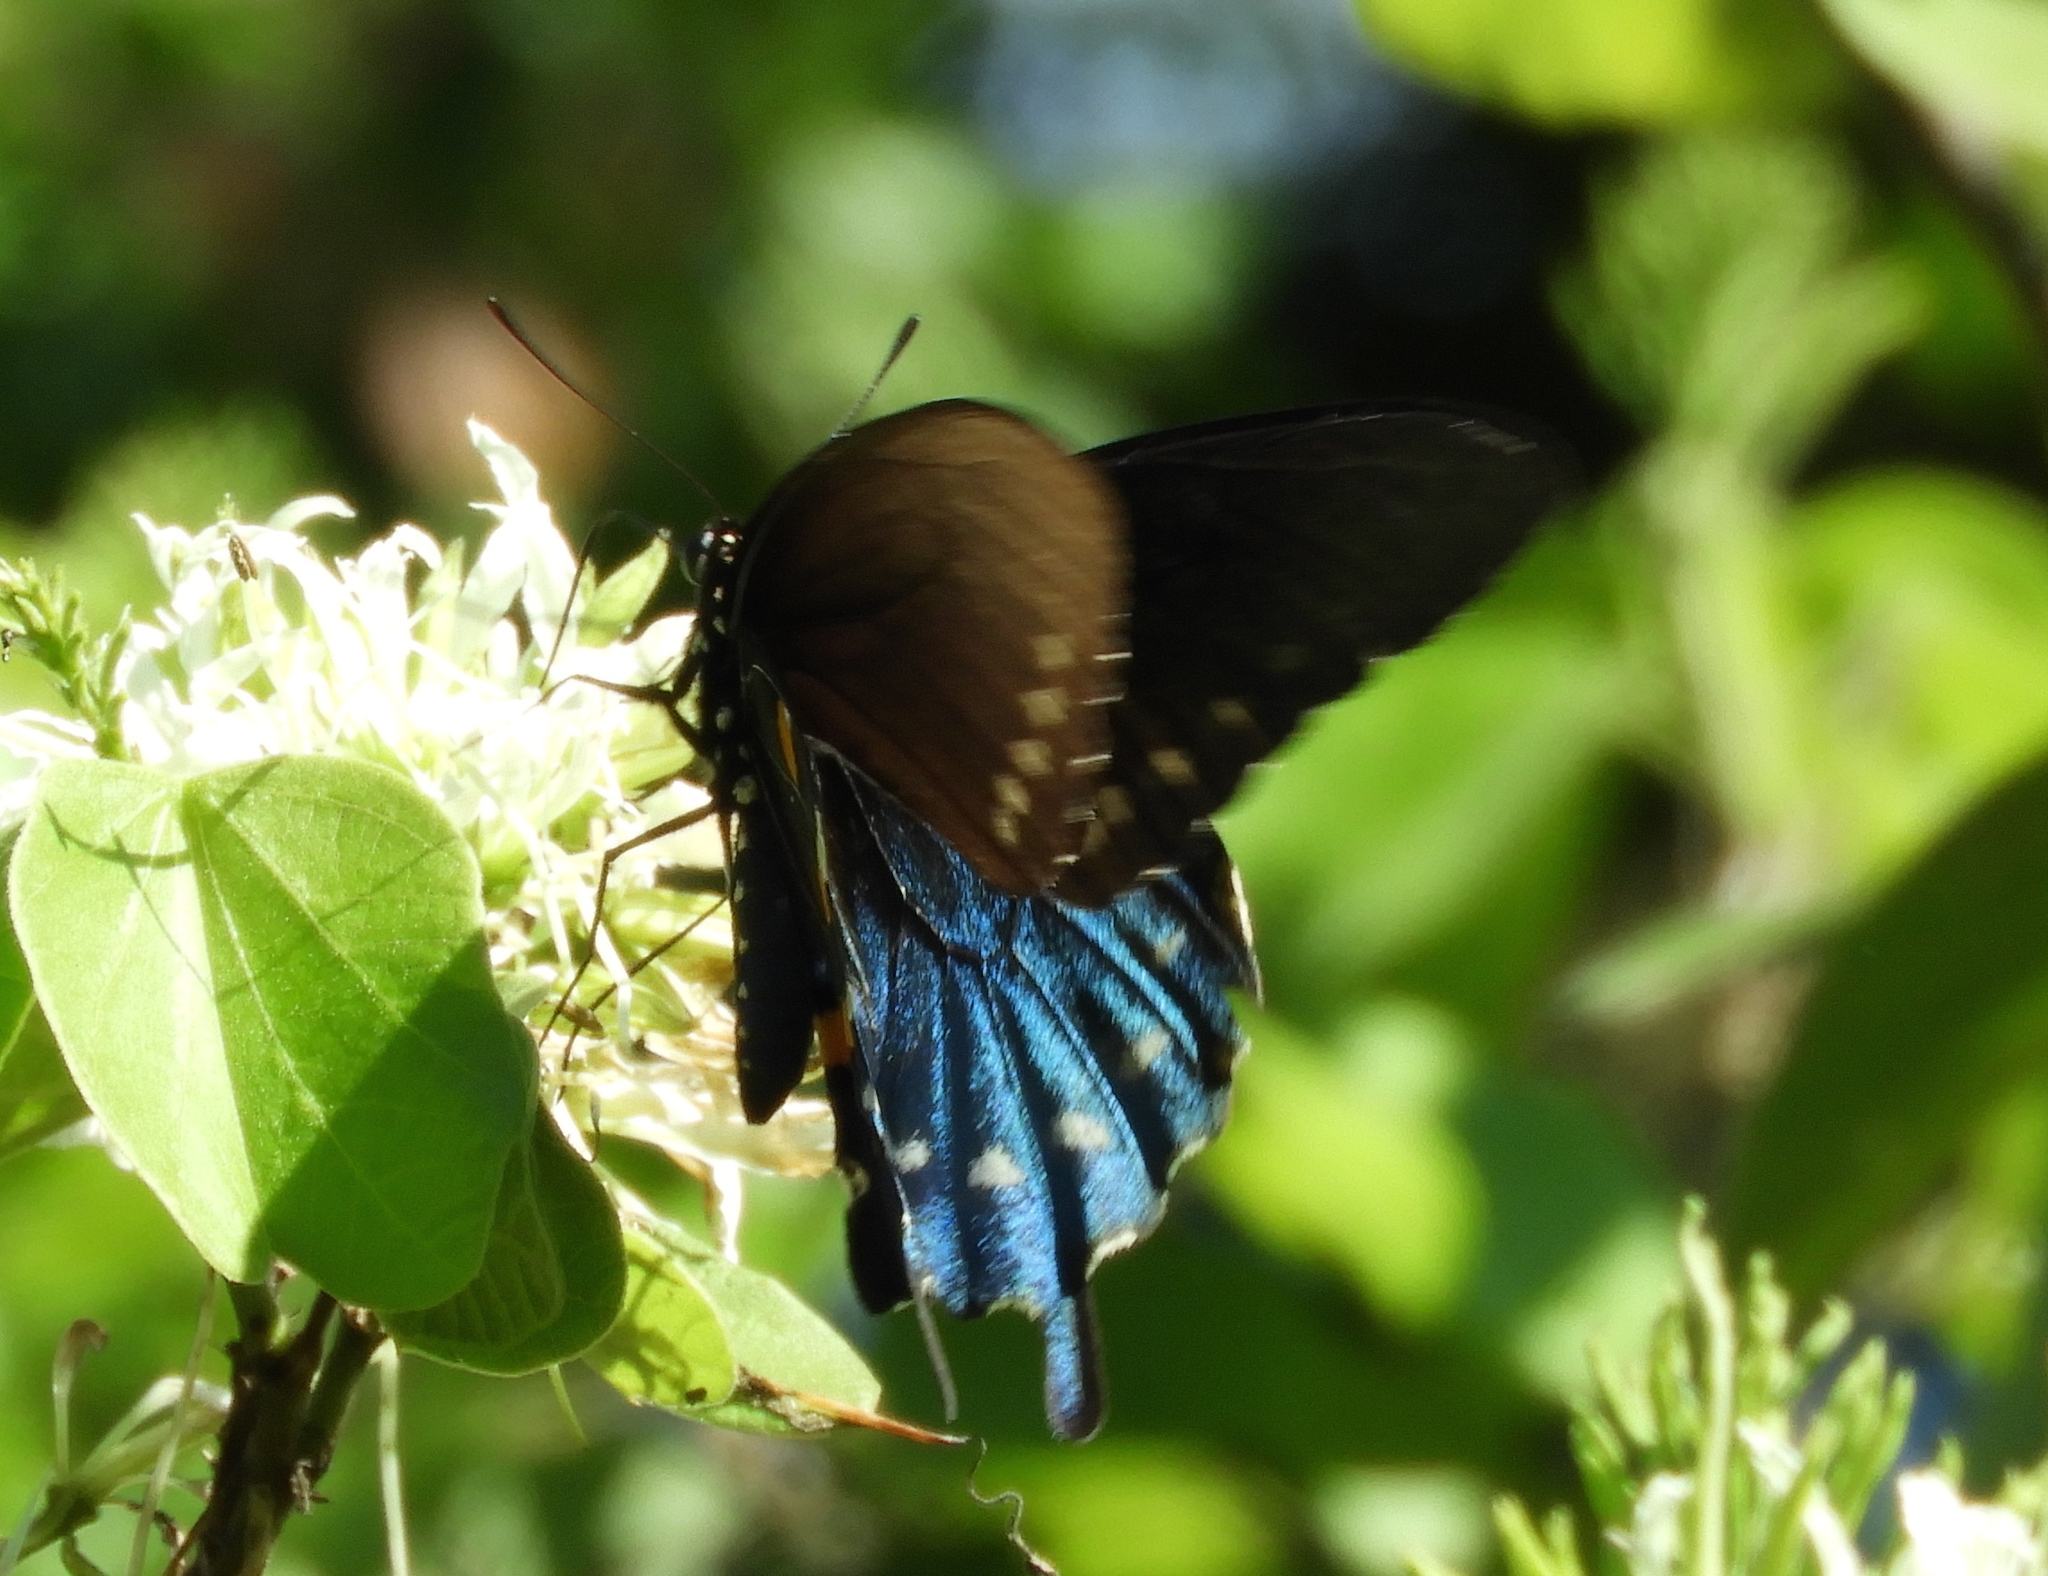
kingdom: Animalia
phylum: Arthropoda
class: Insecta
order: Lepidoptera
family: Papilionidae
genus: Battus
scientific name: Battus philenor
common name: Pipevine swallowtail
